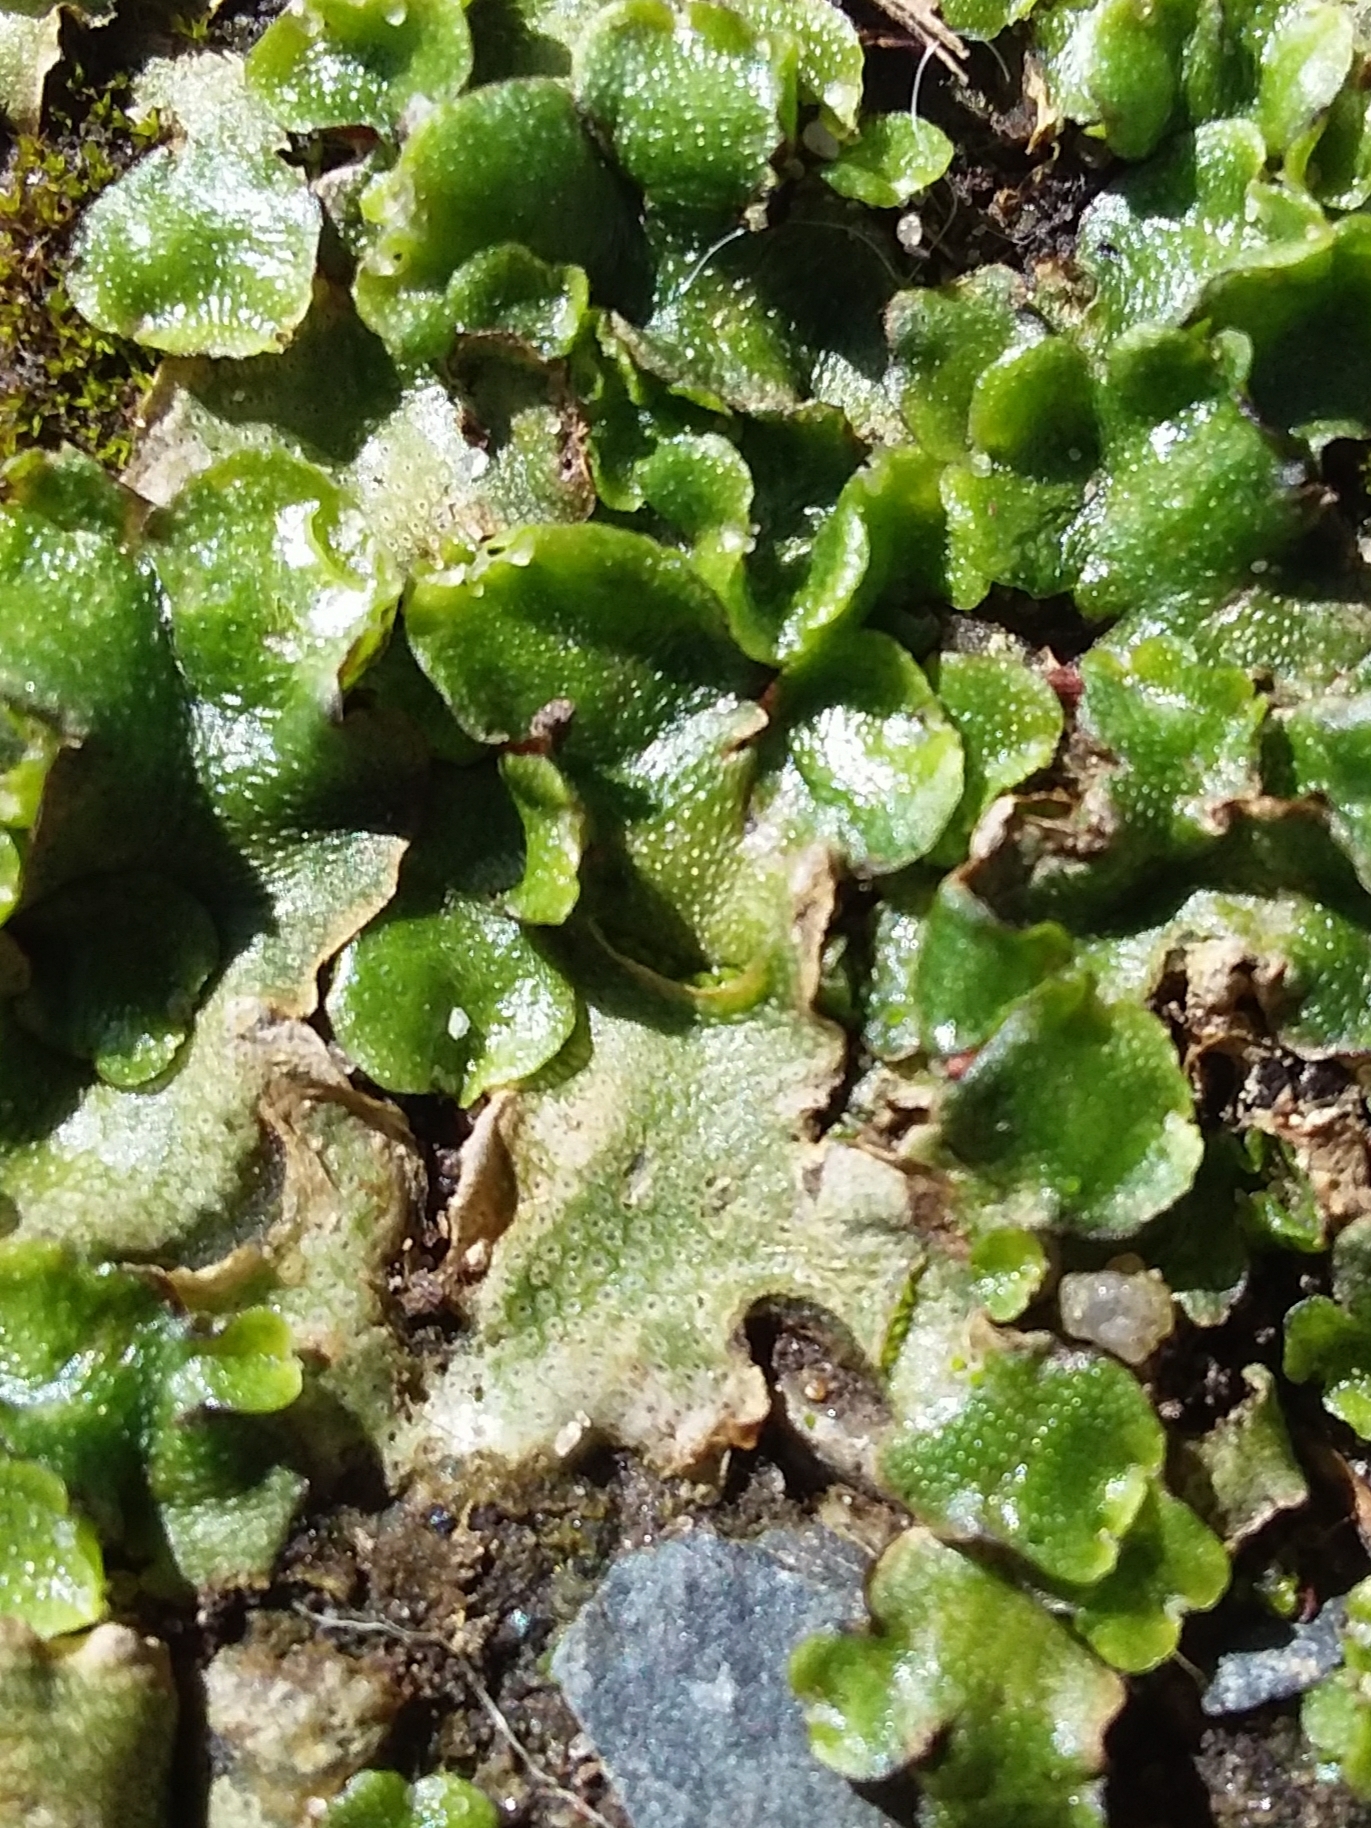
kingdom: Plantae
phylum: Marchantiophyta
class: Marchantiopsida
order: Lunulariales
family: Lunulariaceae
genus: Lunularia
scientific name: Lunularia cruciata
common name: Crescent-cup liverwort
